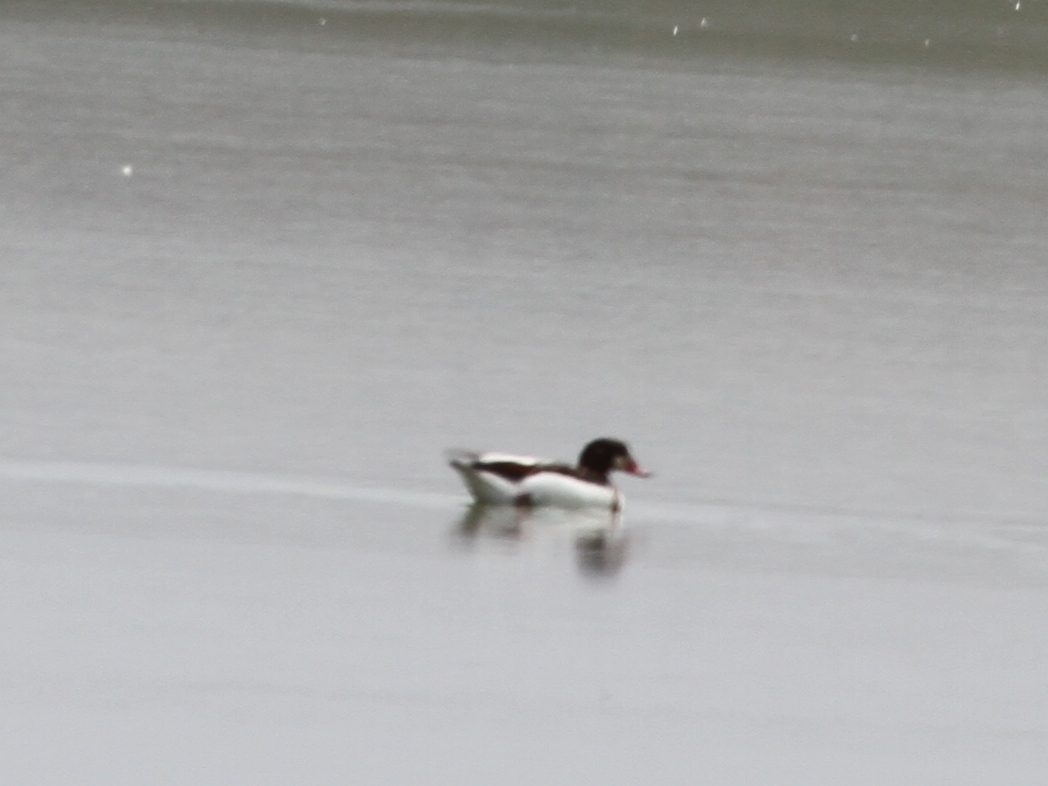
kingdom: Animalia
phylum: Chordata
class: Aves
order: Anseriformes
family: Anatidae
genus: Tadorna
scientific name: Tadorna tadorna
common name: Common shelduck
